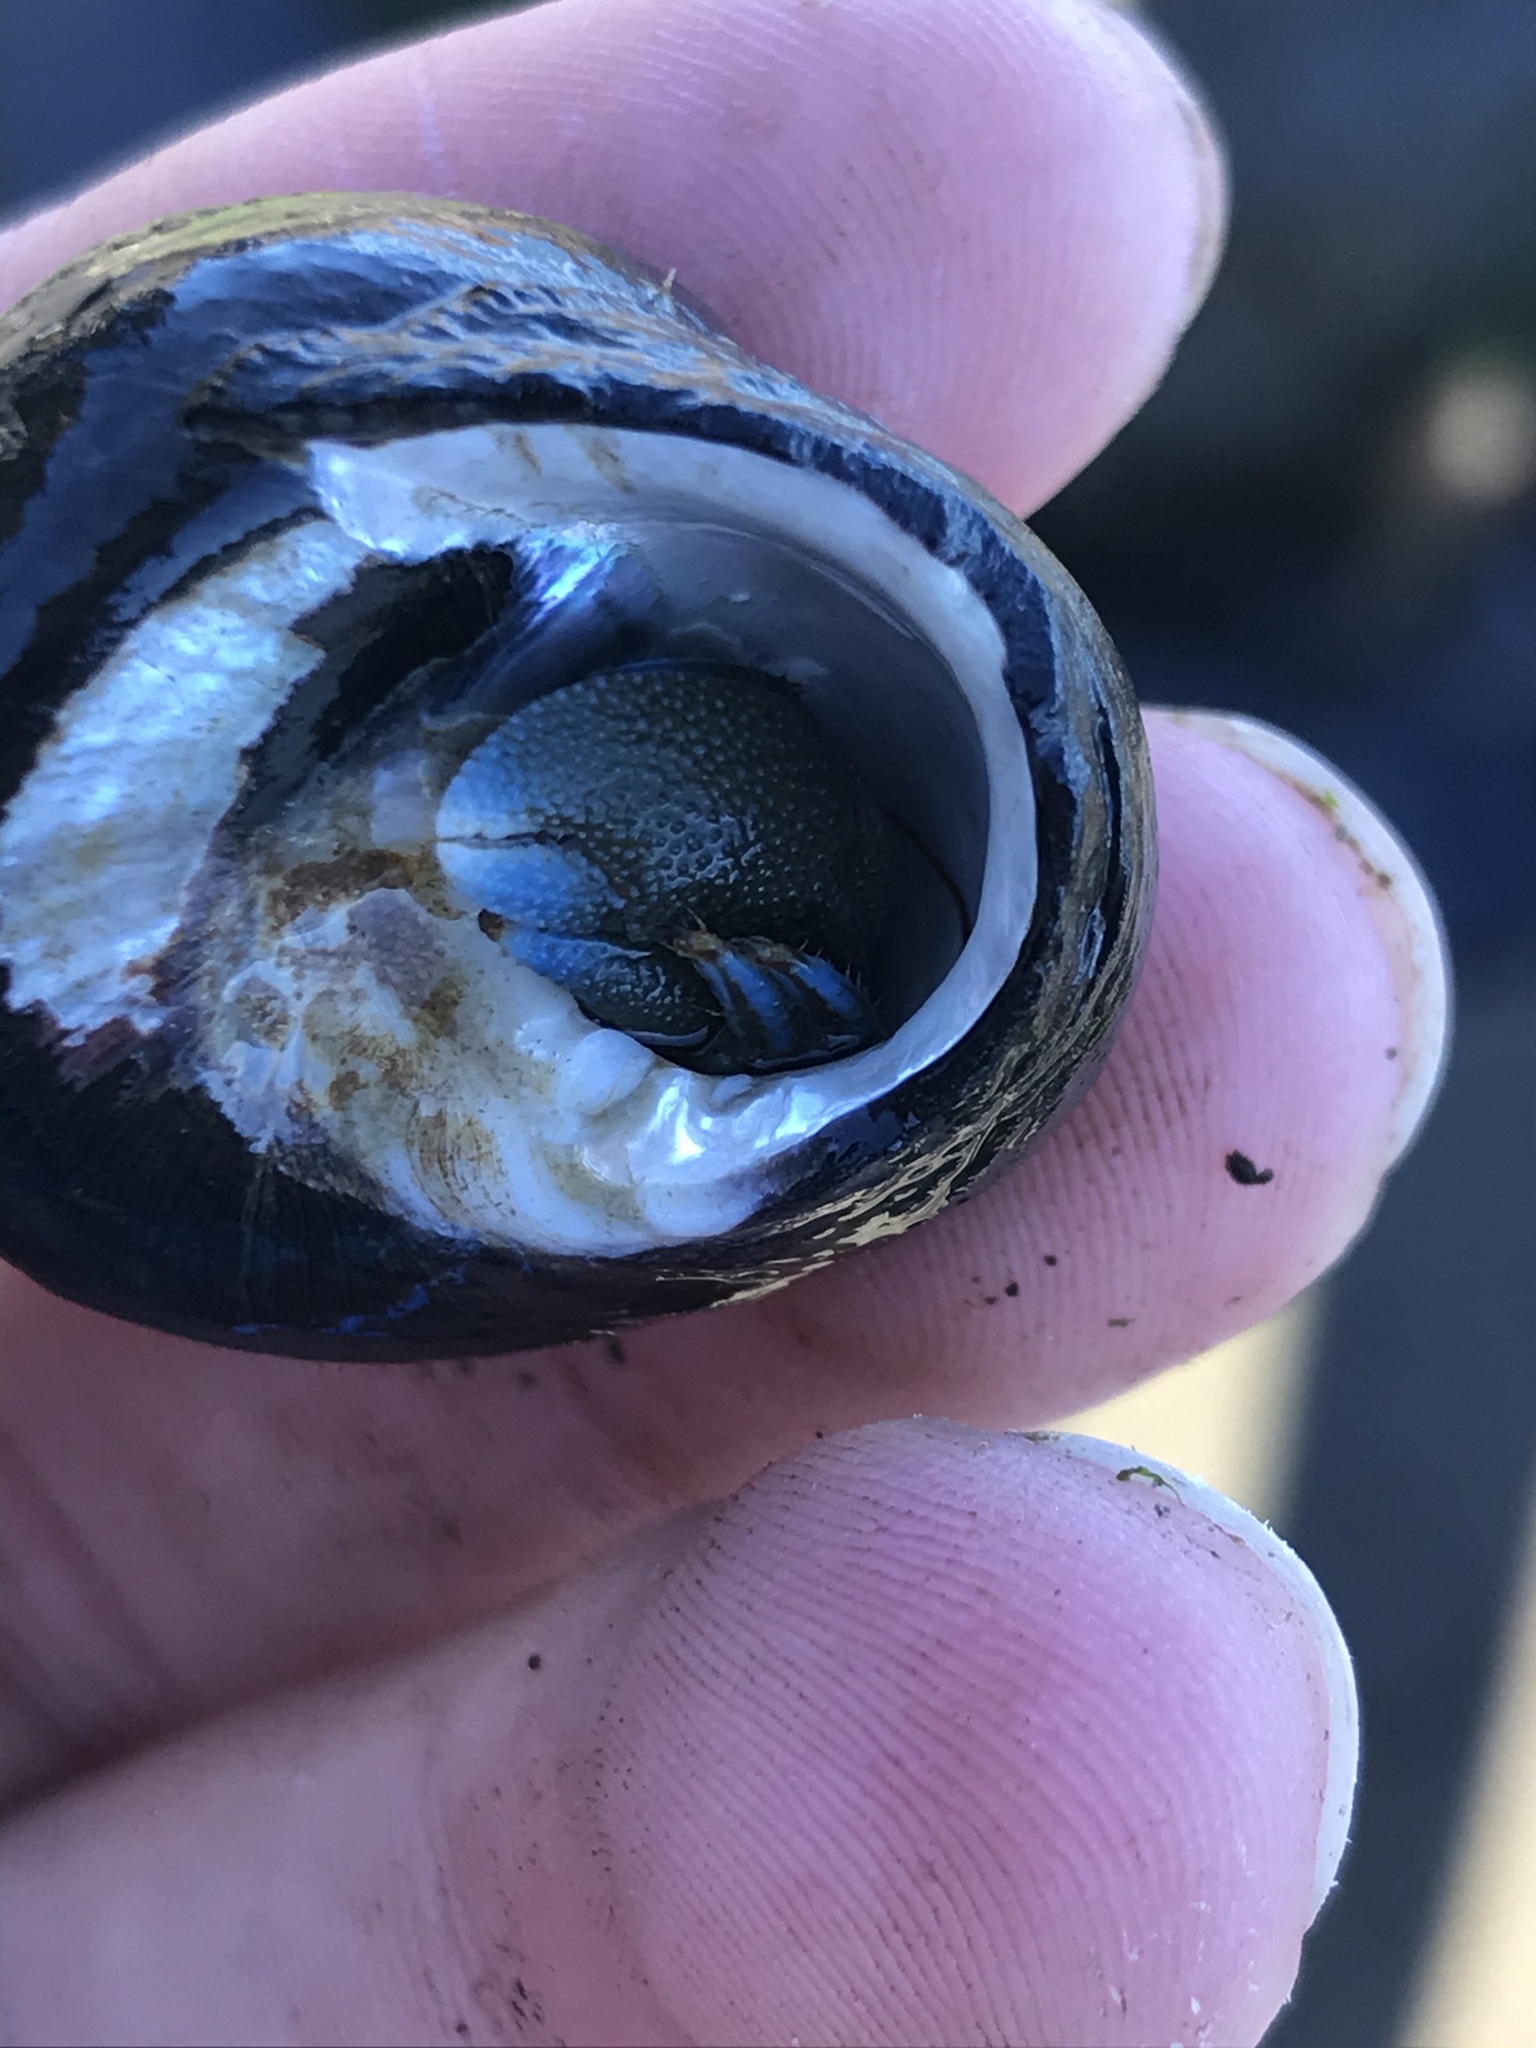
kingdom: Animalia
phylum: Arthropoda
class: Malacostraca
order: Decapoda
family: Paguridae
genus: Pagurus
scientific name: Pagurus samuelis
